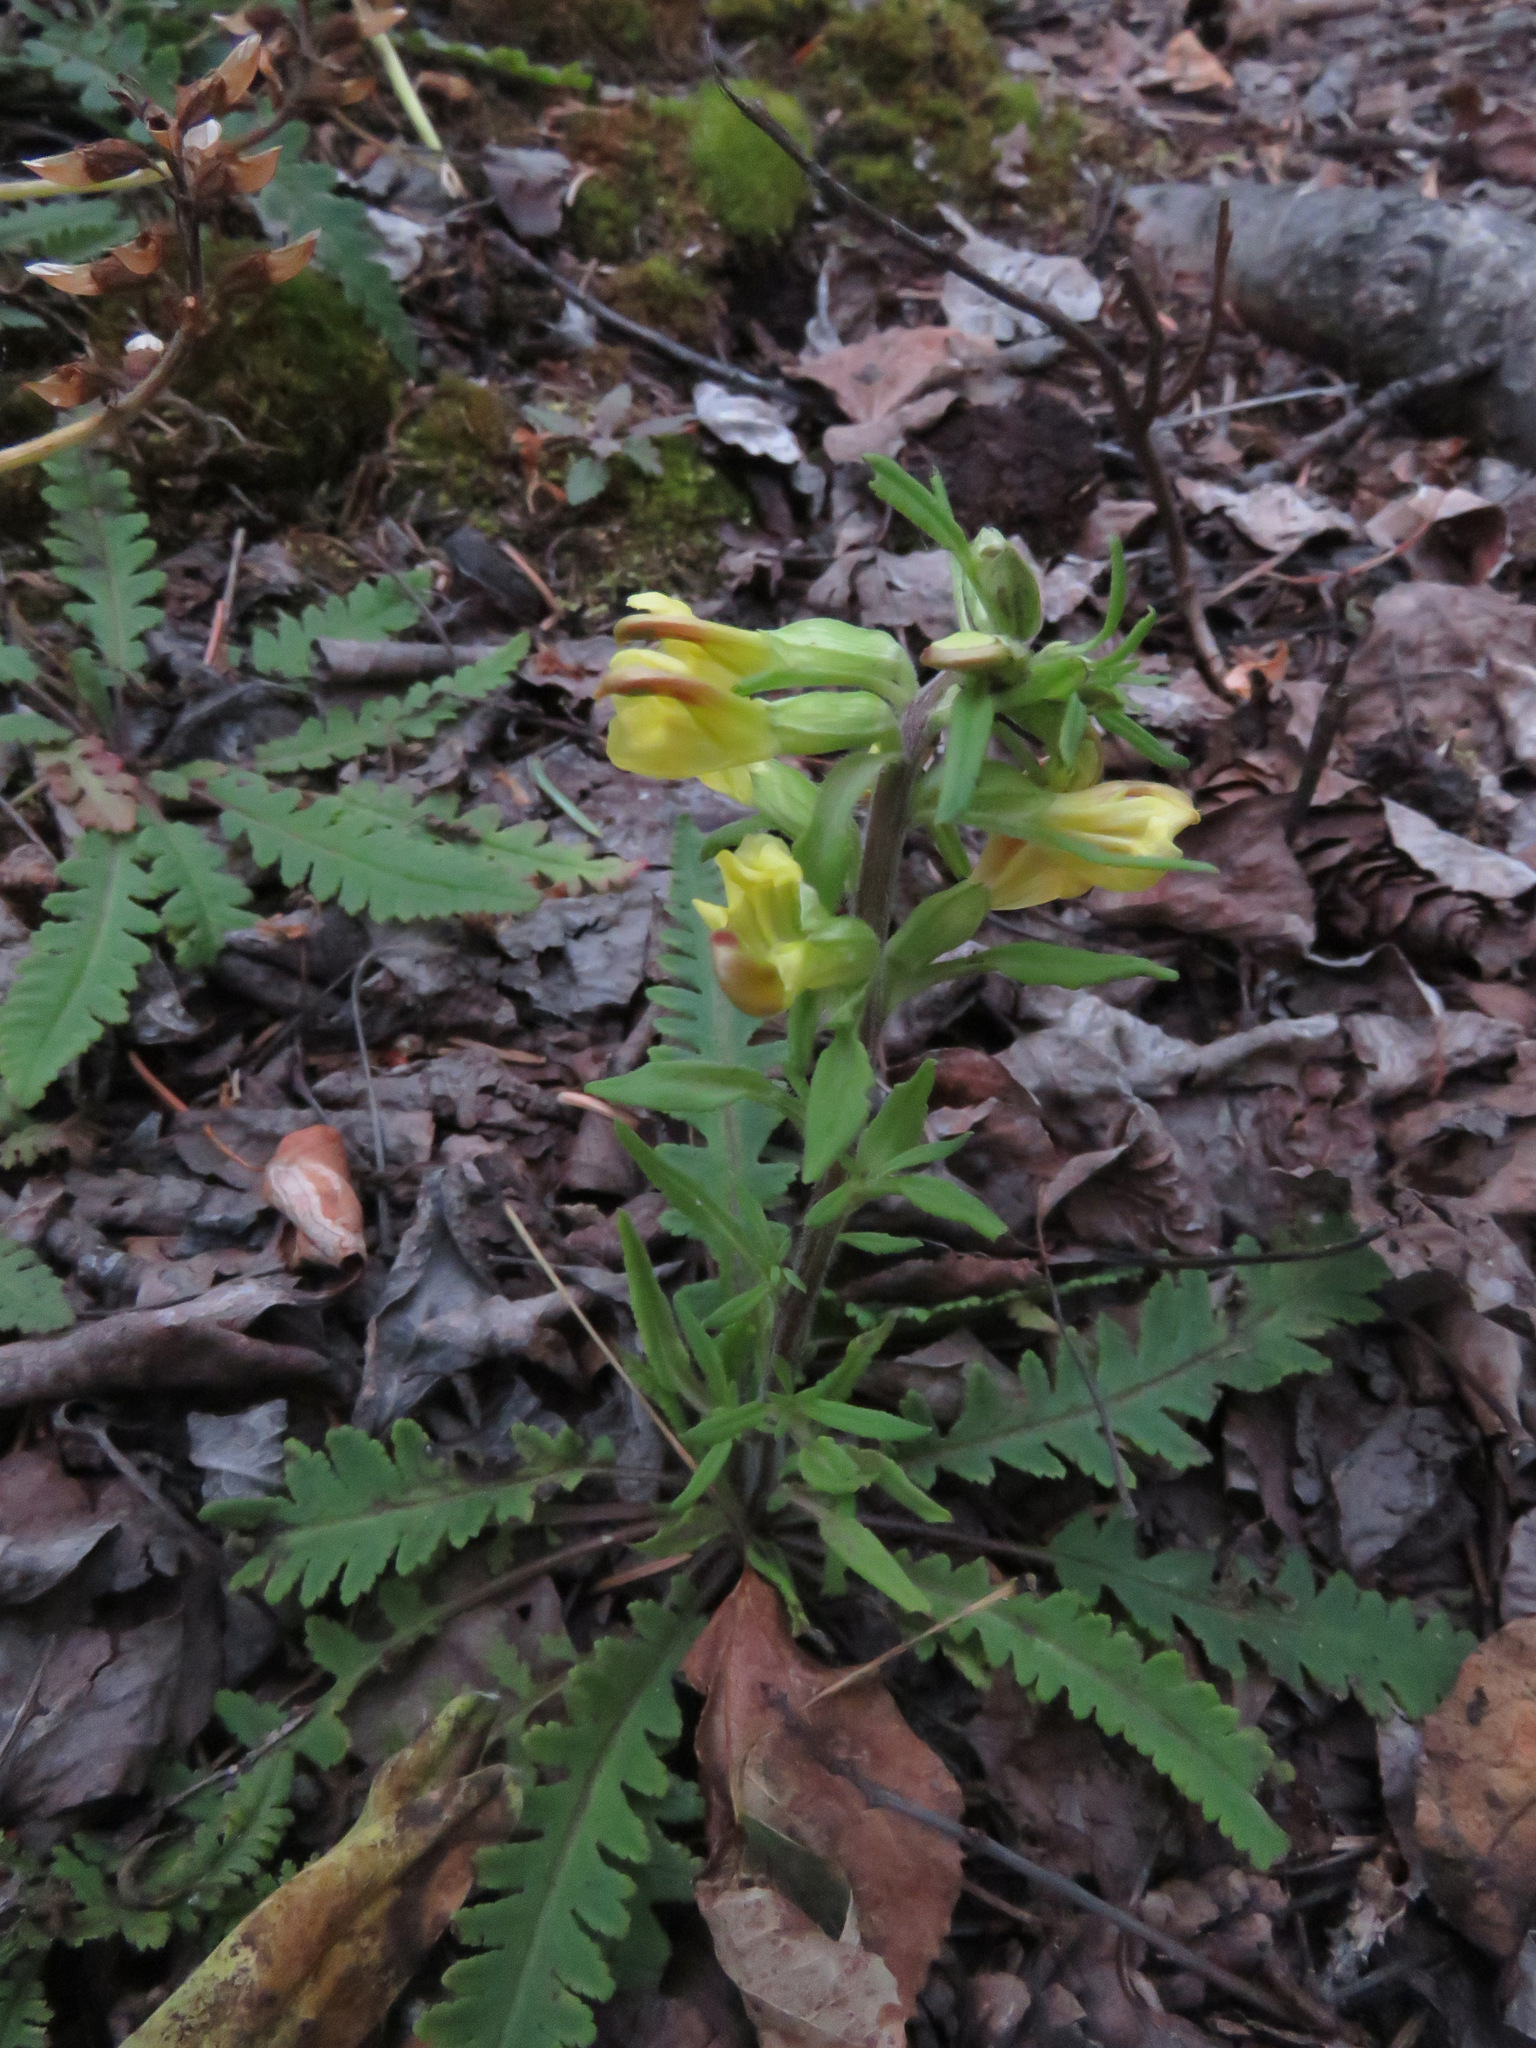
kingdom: Plantae
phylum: Tracheophyta
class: Magnoliopsida
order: Lamiales
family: Orobanchaceae
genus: Pedicularis
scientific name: Pedicularis labradorica
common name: Labrador lousewort
